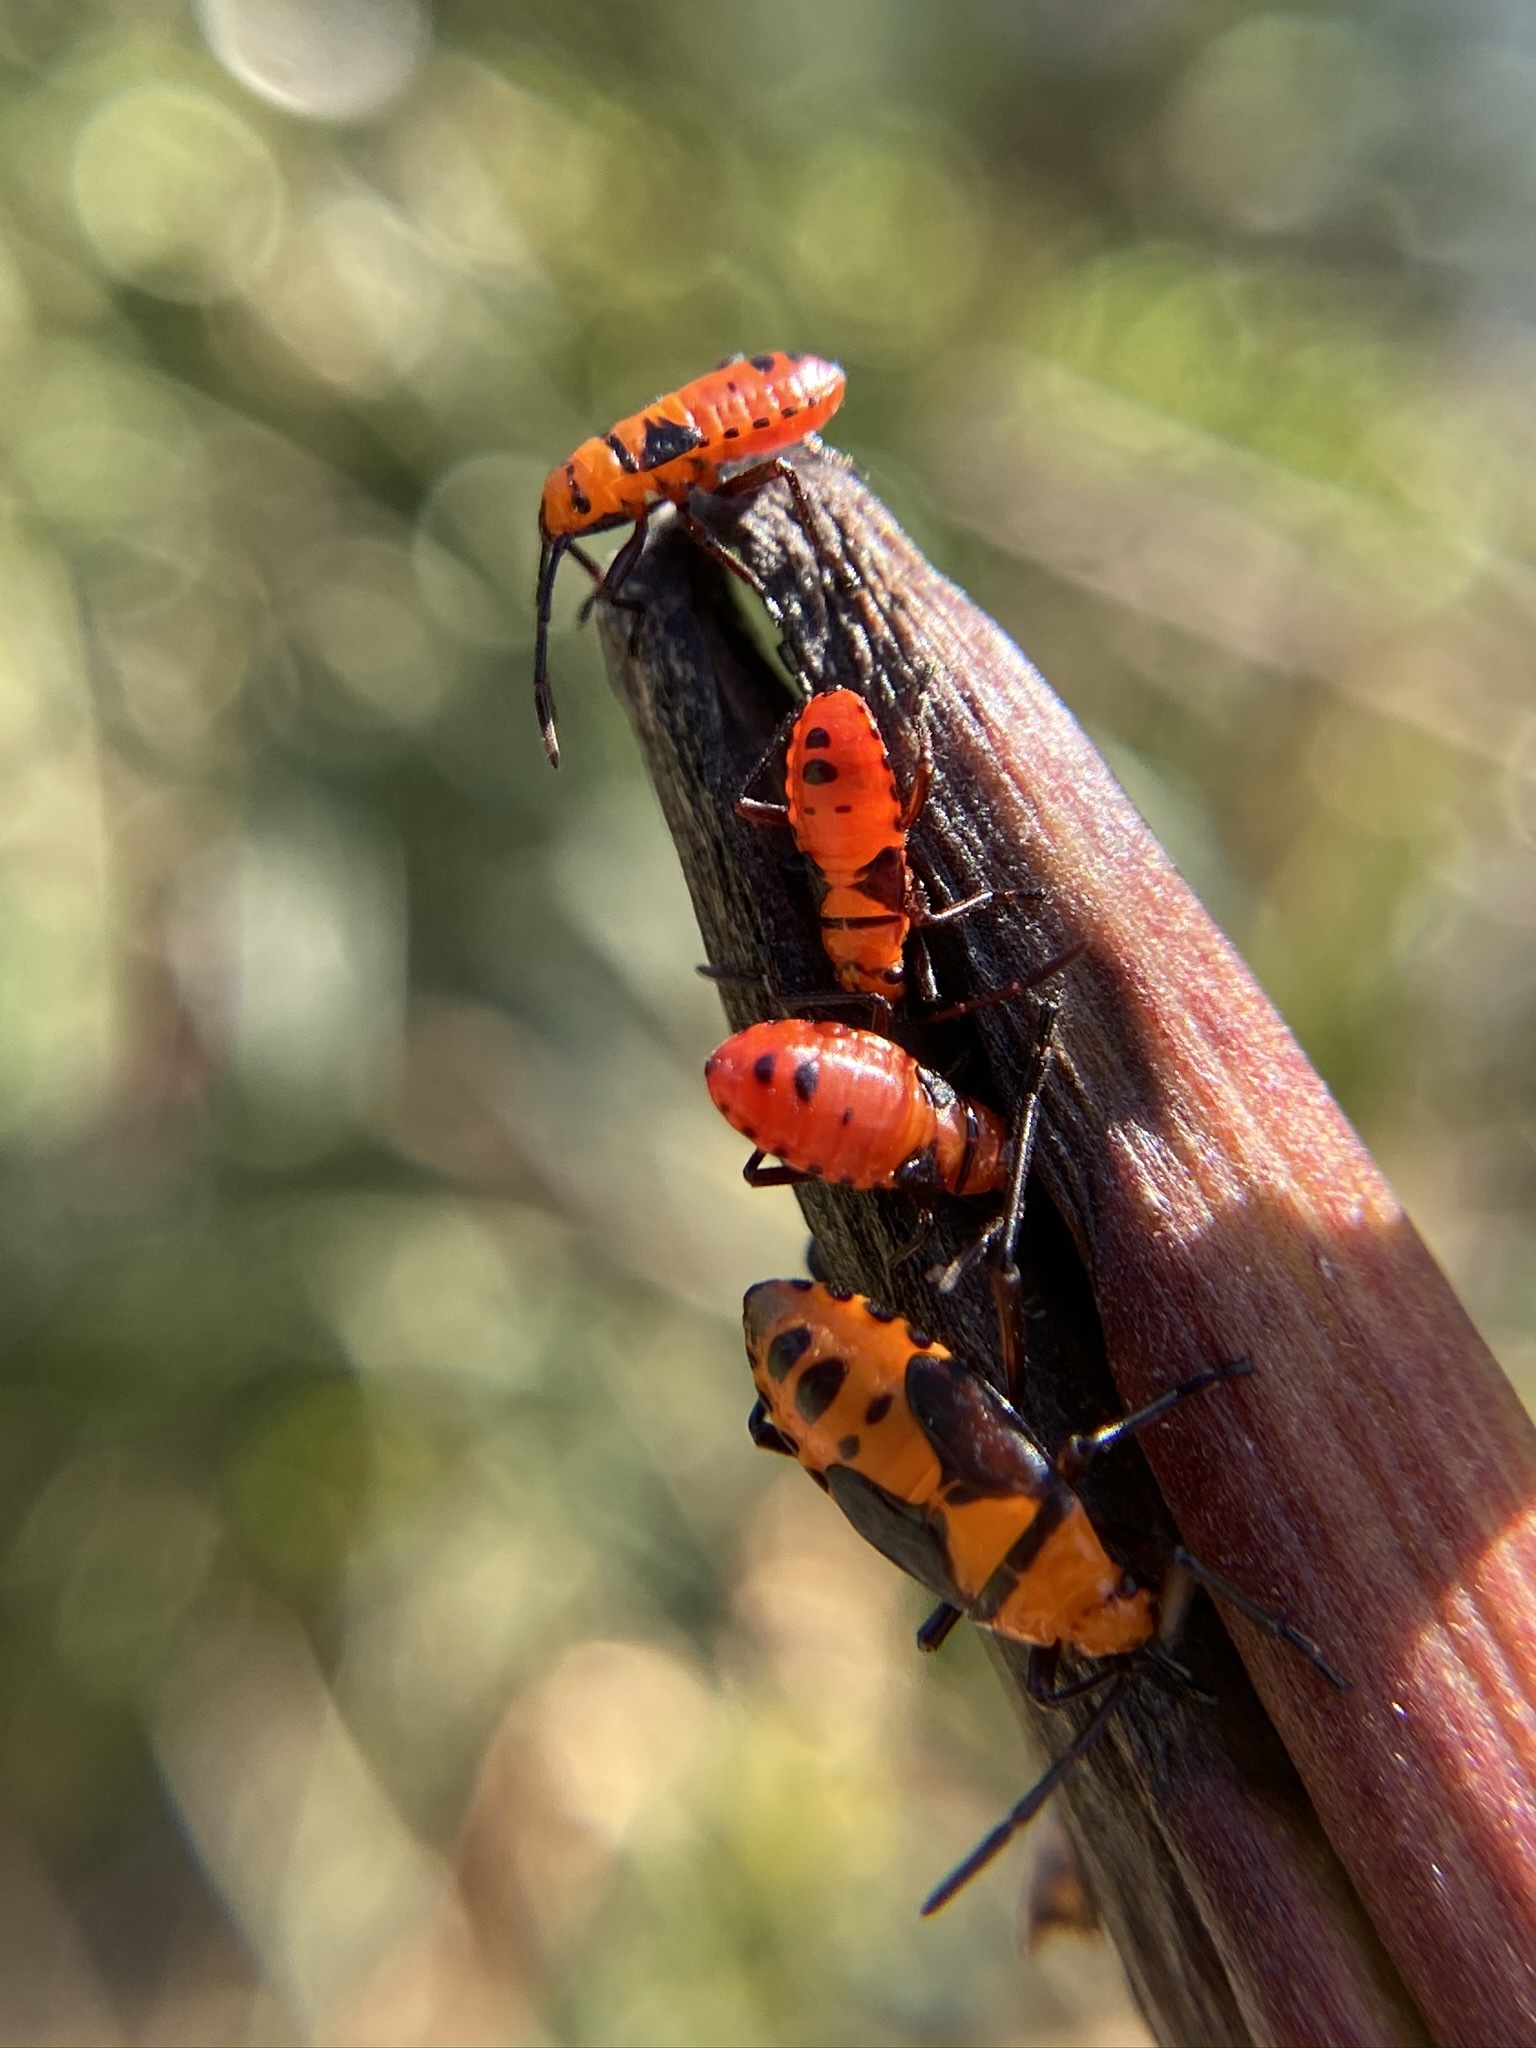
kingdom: Animalia
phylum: Arthropoda
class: Insecta
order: Hemiptera
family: Lygaeidae
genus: Oncopeltus
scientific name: Oncopeltus aulicus
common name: Lygaeid bug
